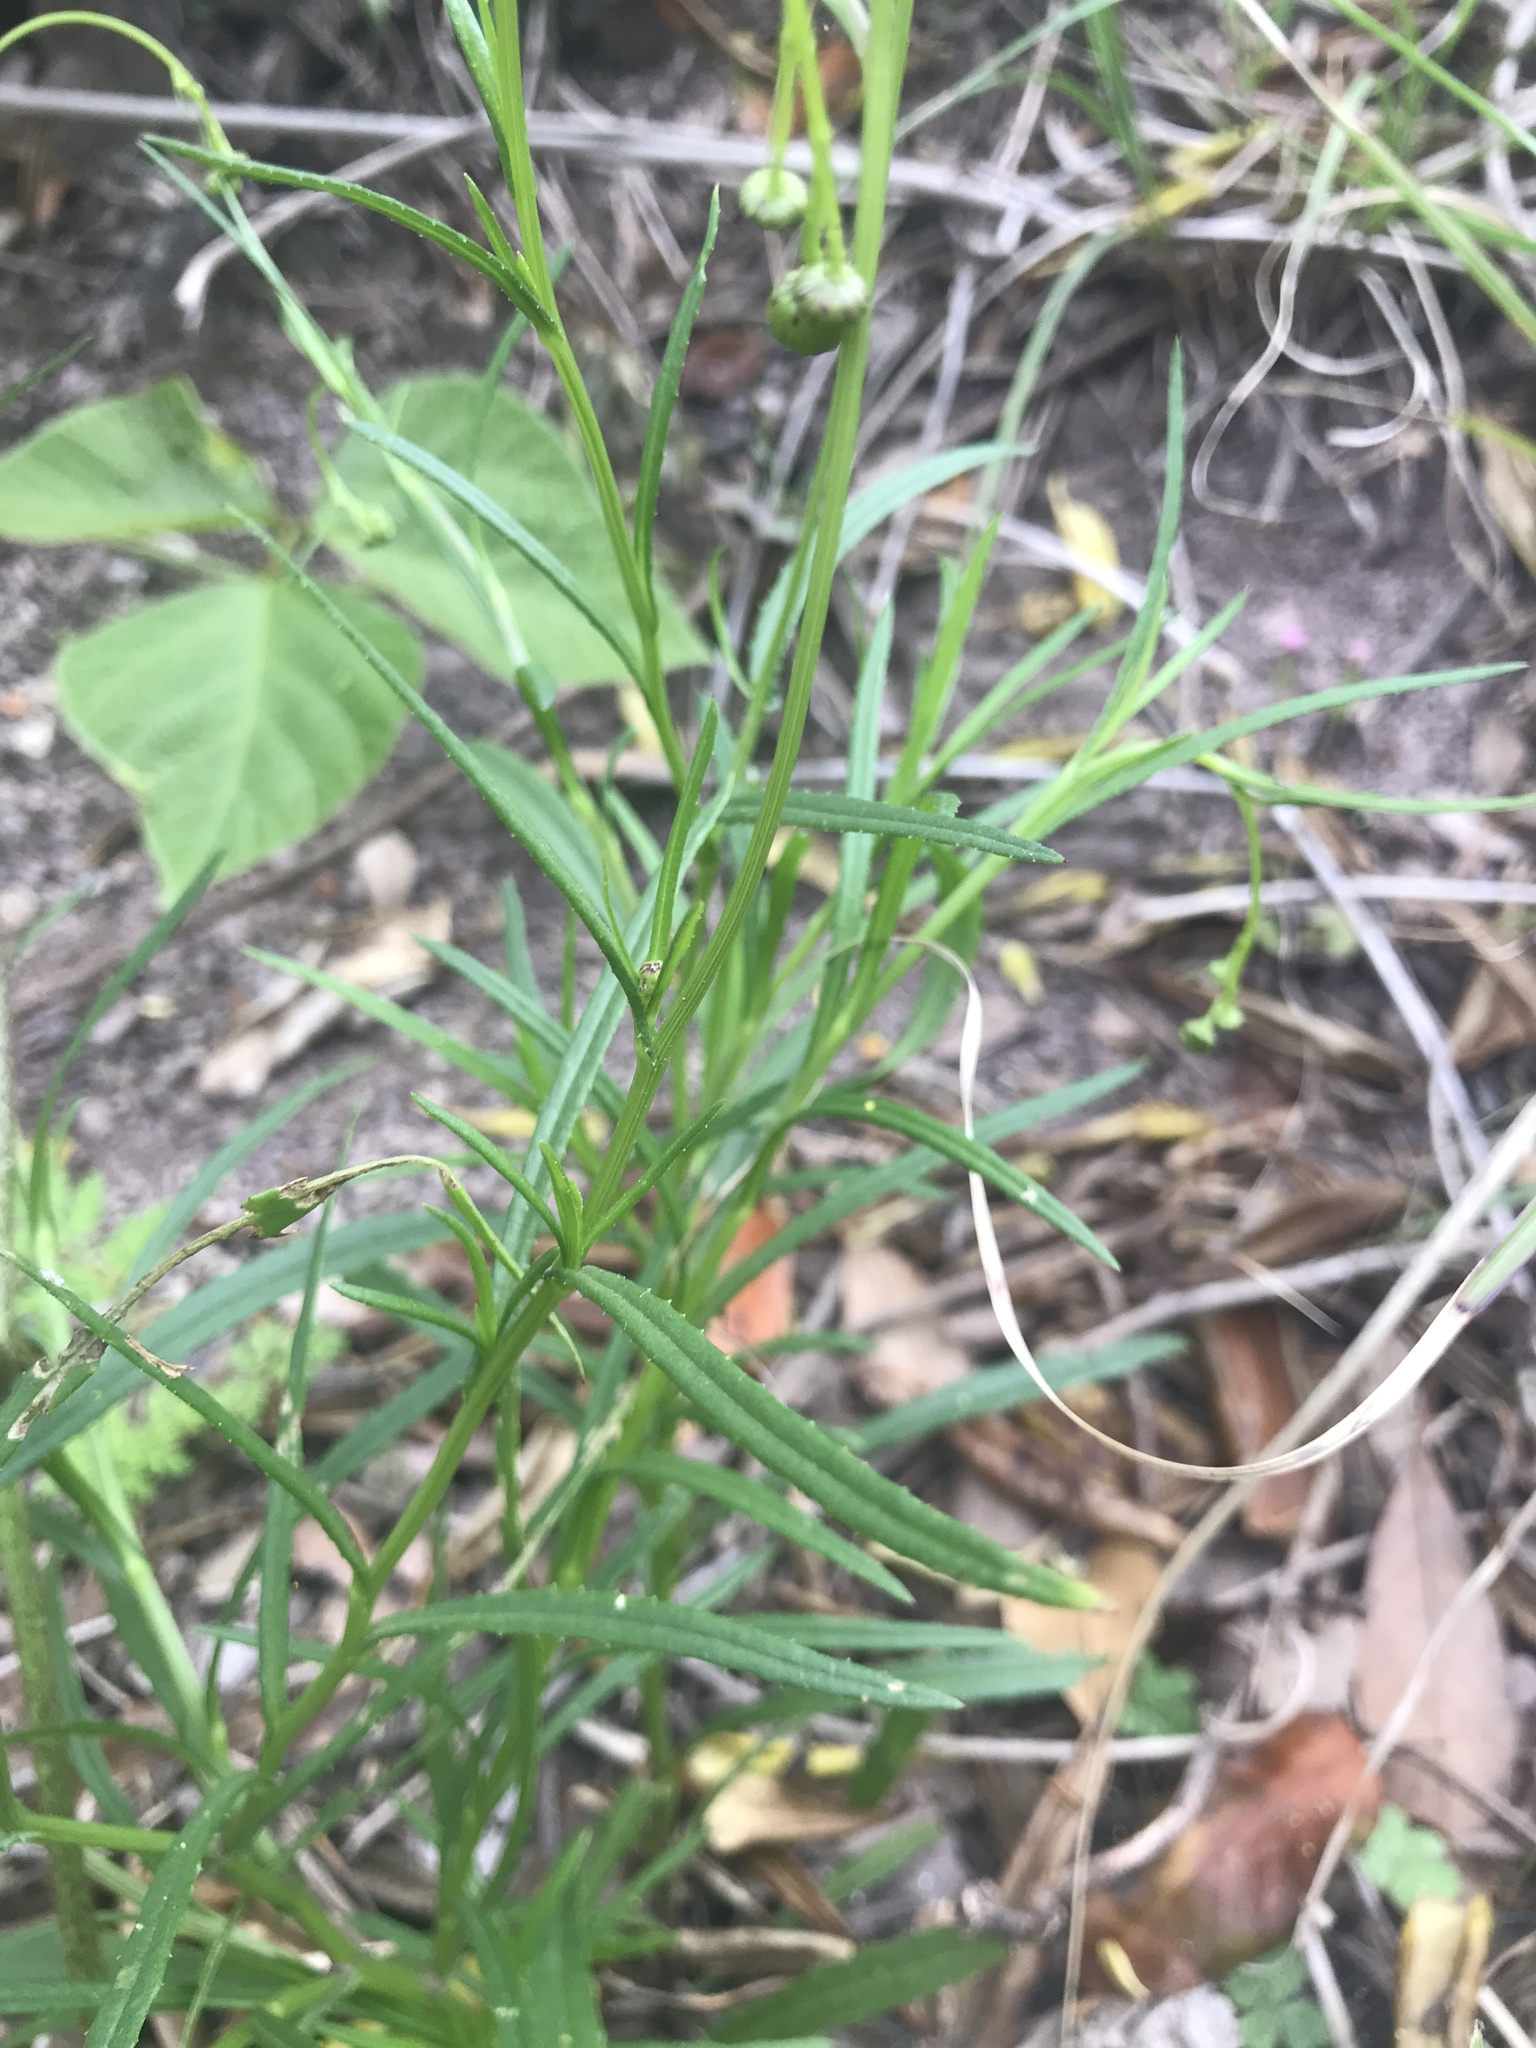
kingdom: Plantae
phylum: Tracheophyta
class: Magnoliopsida
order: Asterales
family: Asteraceae
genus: Senecio
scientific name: Senecio madagascariensis
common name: Madagascar ragwort
